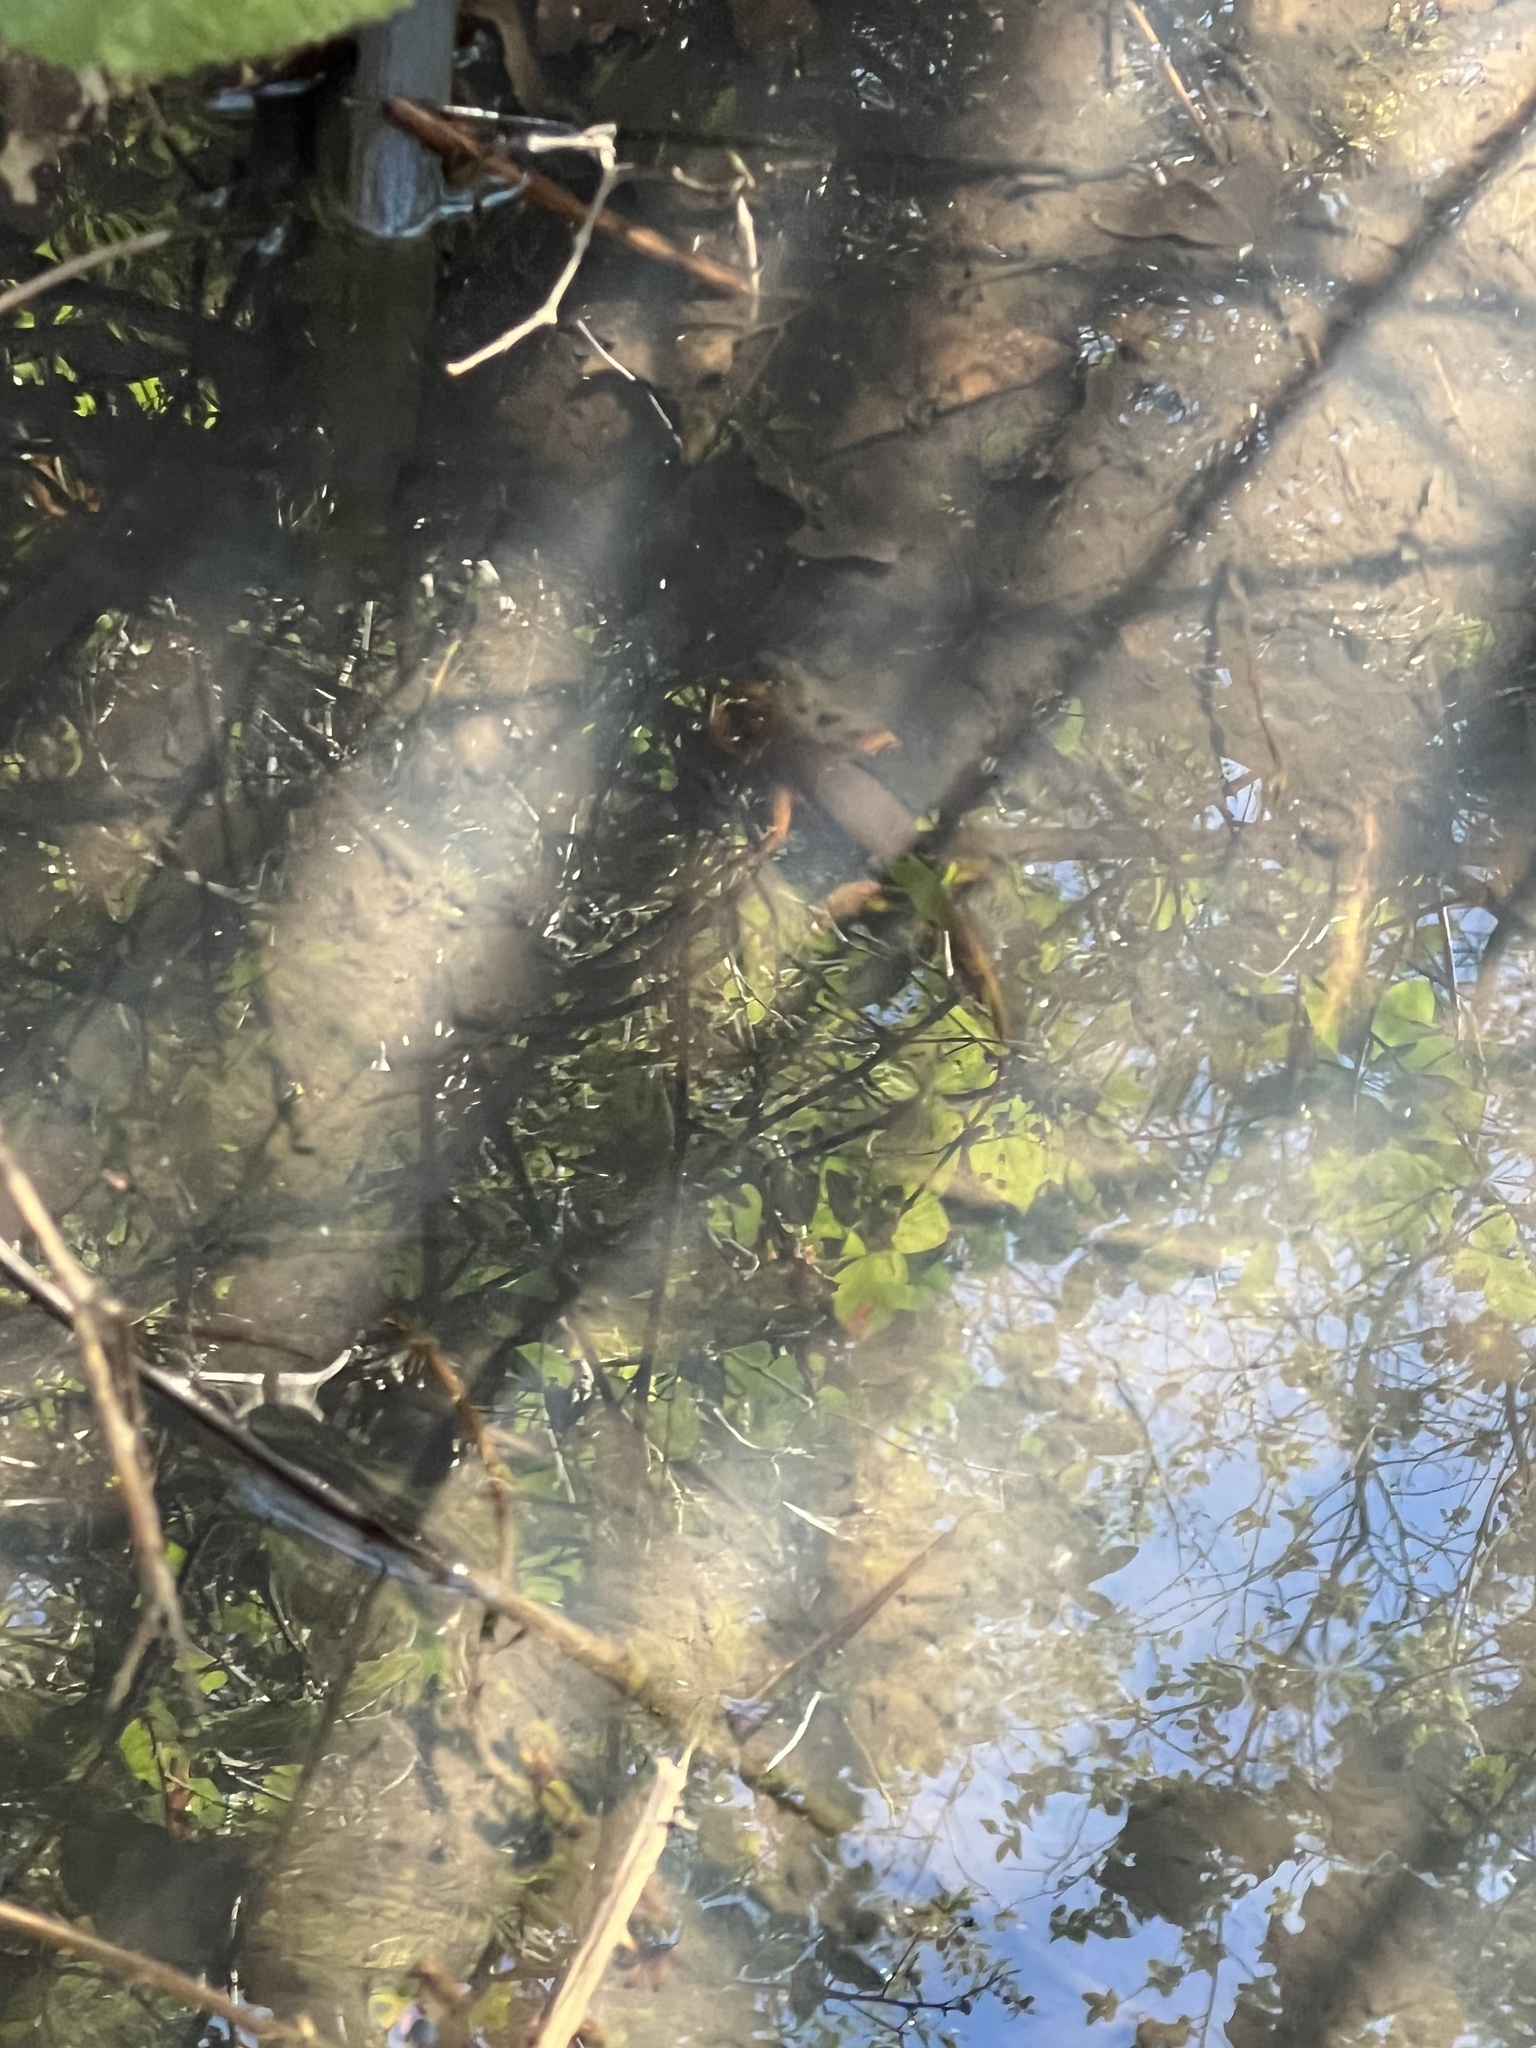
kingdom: Animalia
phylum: Chordata
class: Amphibia
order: Caudata
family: Salamandridae
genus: Taricha
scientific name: Taricha sierrae
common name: Sierra newt
